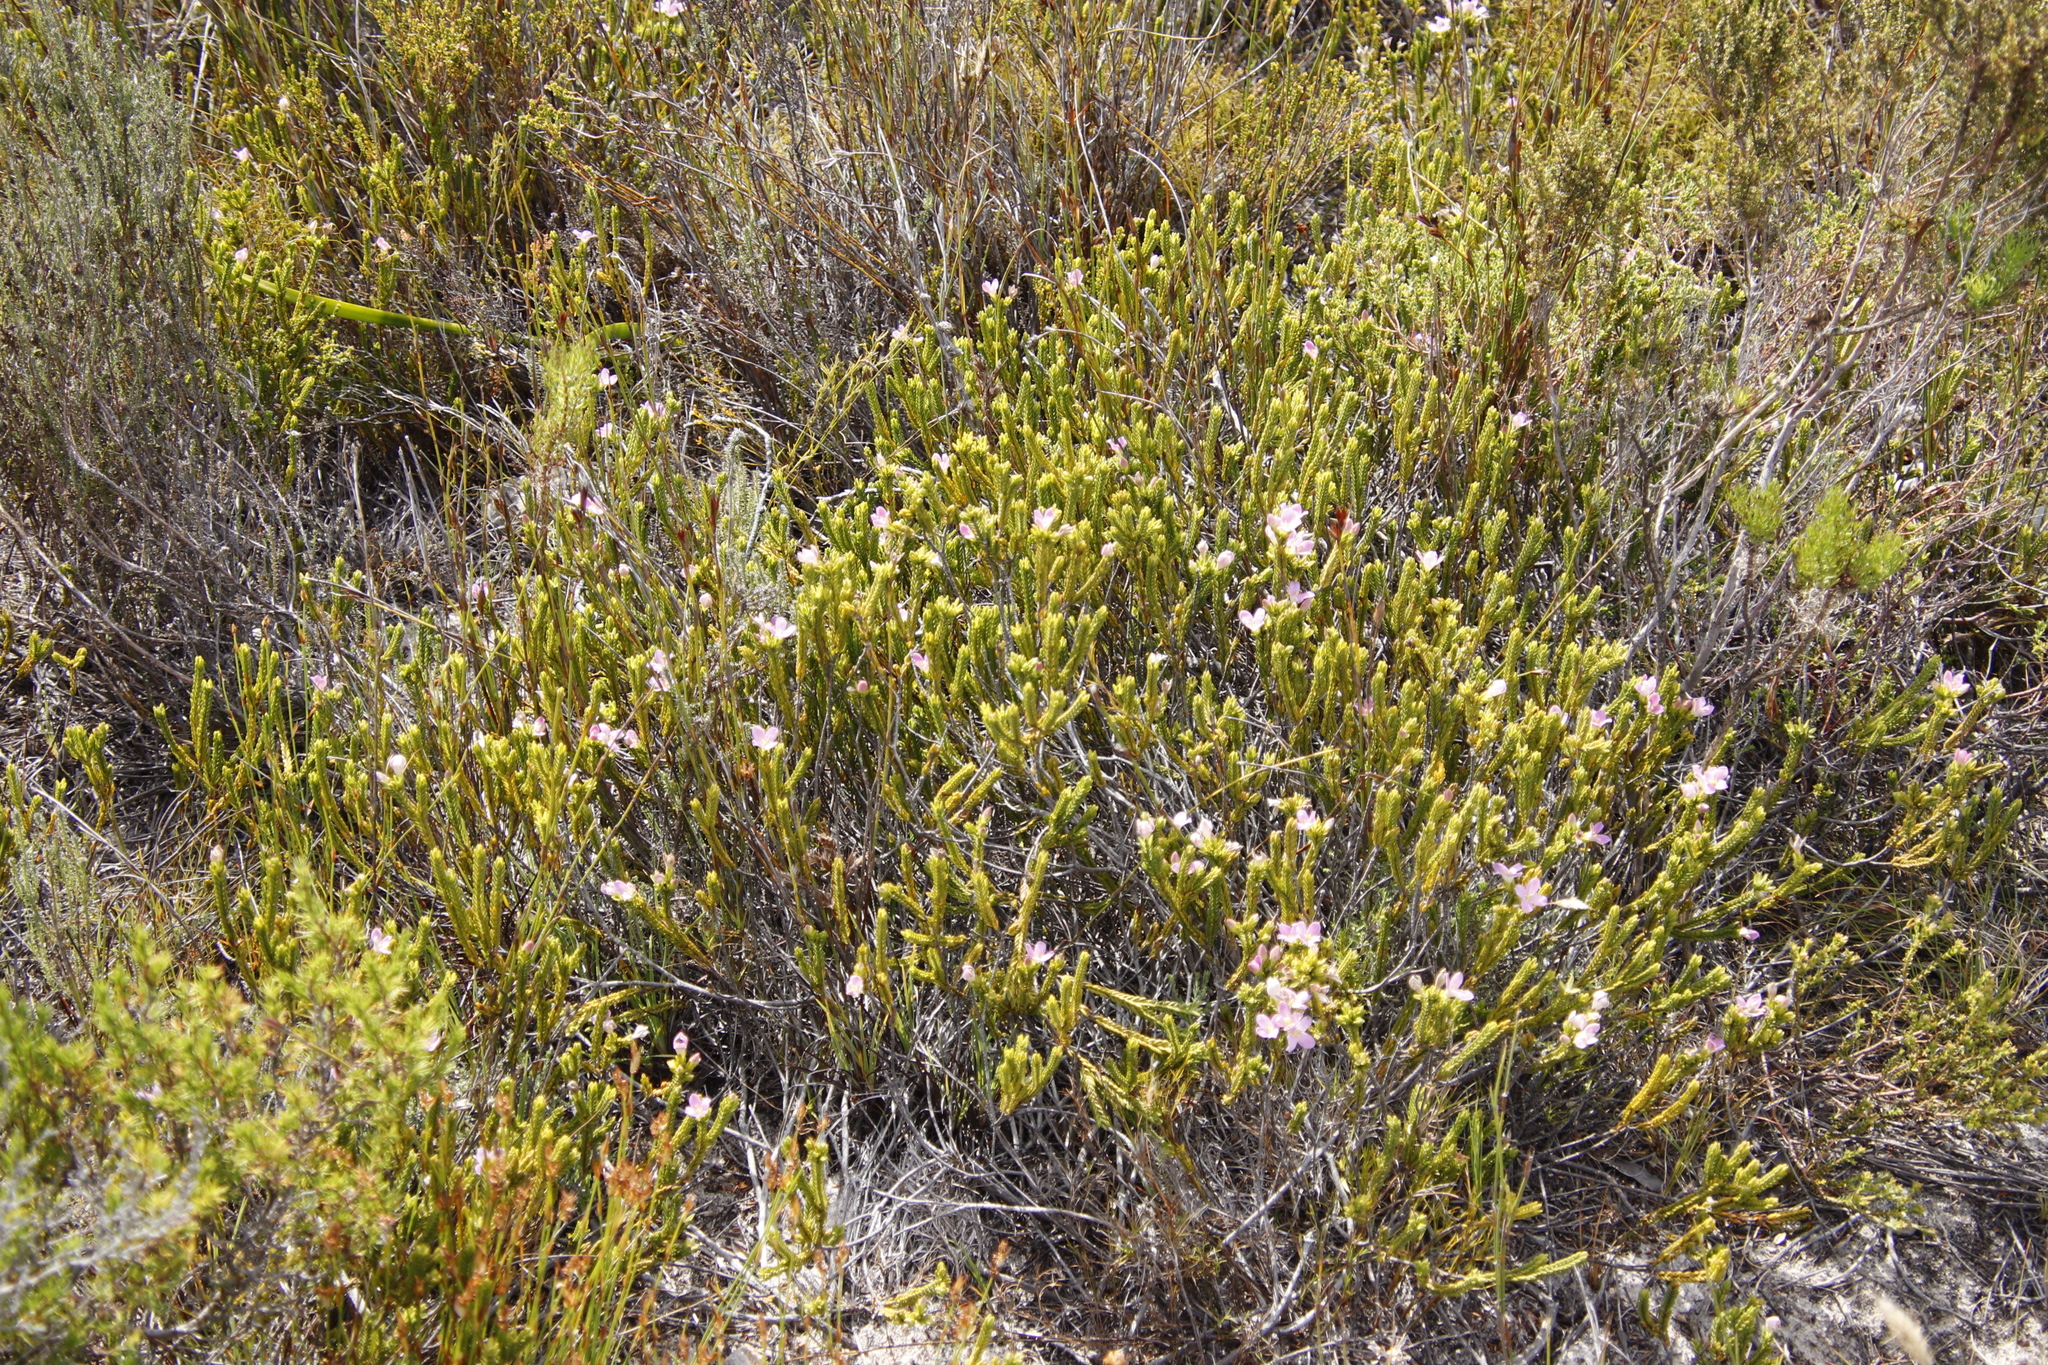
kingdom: Plantae
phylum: Tracheophyta
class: Magnoliopsida
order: Malvales
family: Thymelaeaceae
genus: Lachnaea
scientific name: Lachnaea grandiflora
